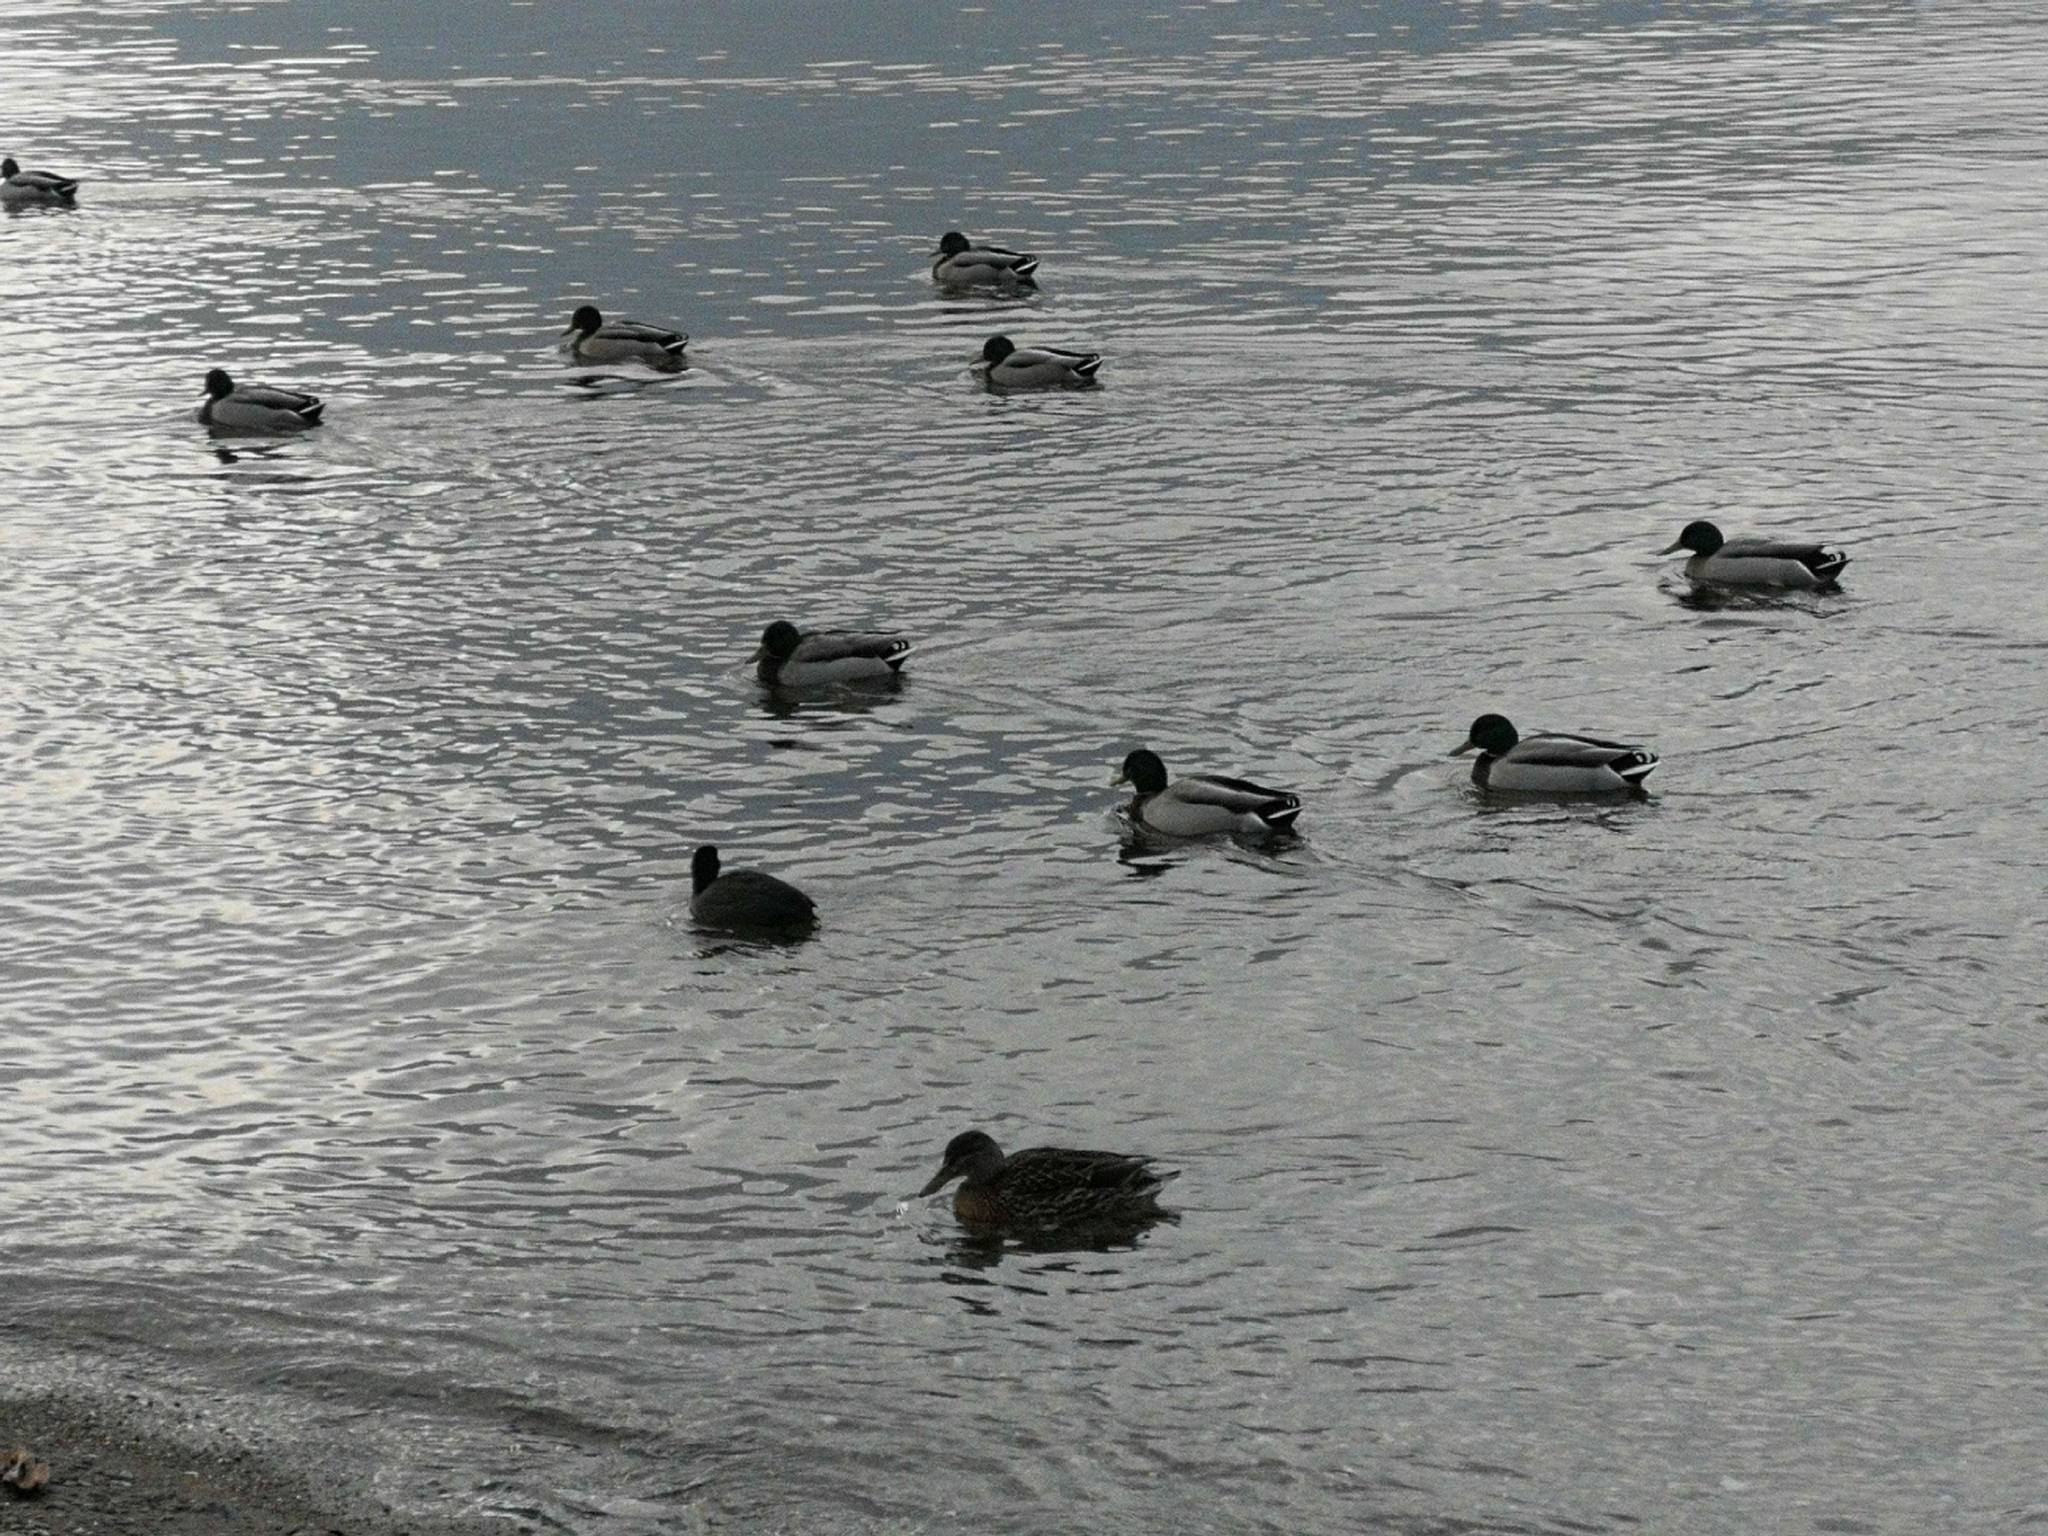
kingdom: Animalia
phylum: Chordata
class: Aves
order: Anseriformes
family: Anatidae
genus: Anas
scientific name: Anas platyrhynchos
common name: Mallard
